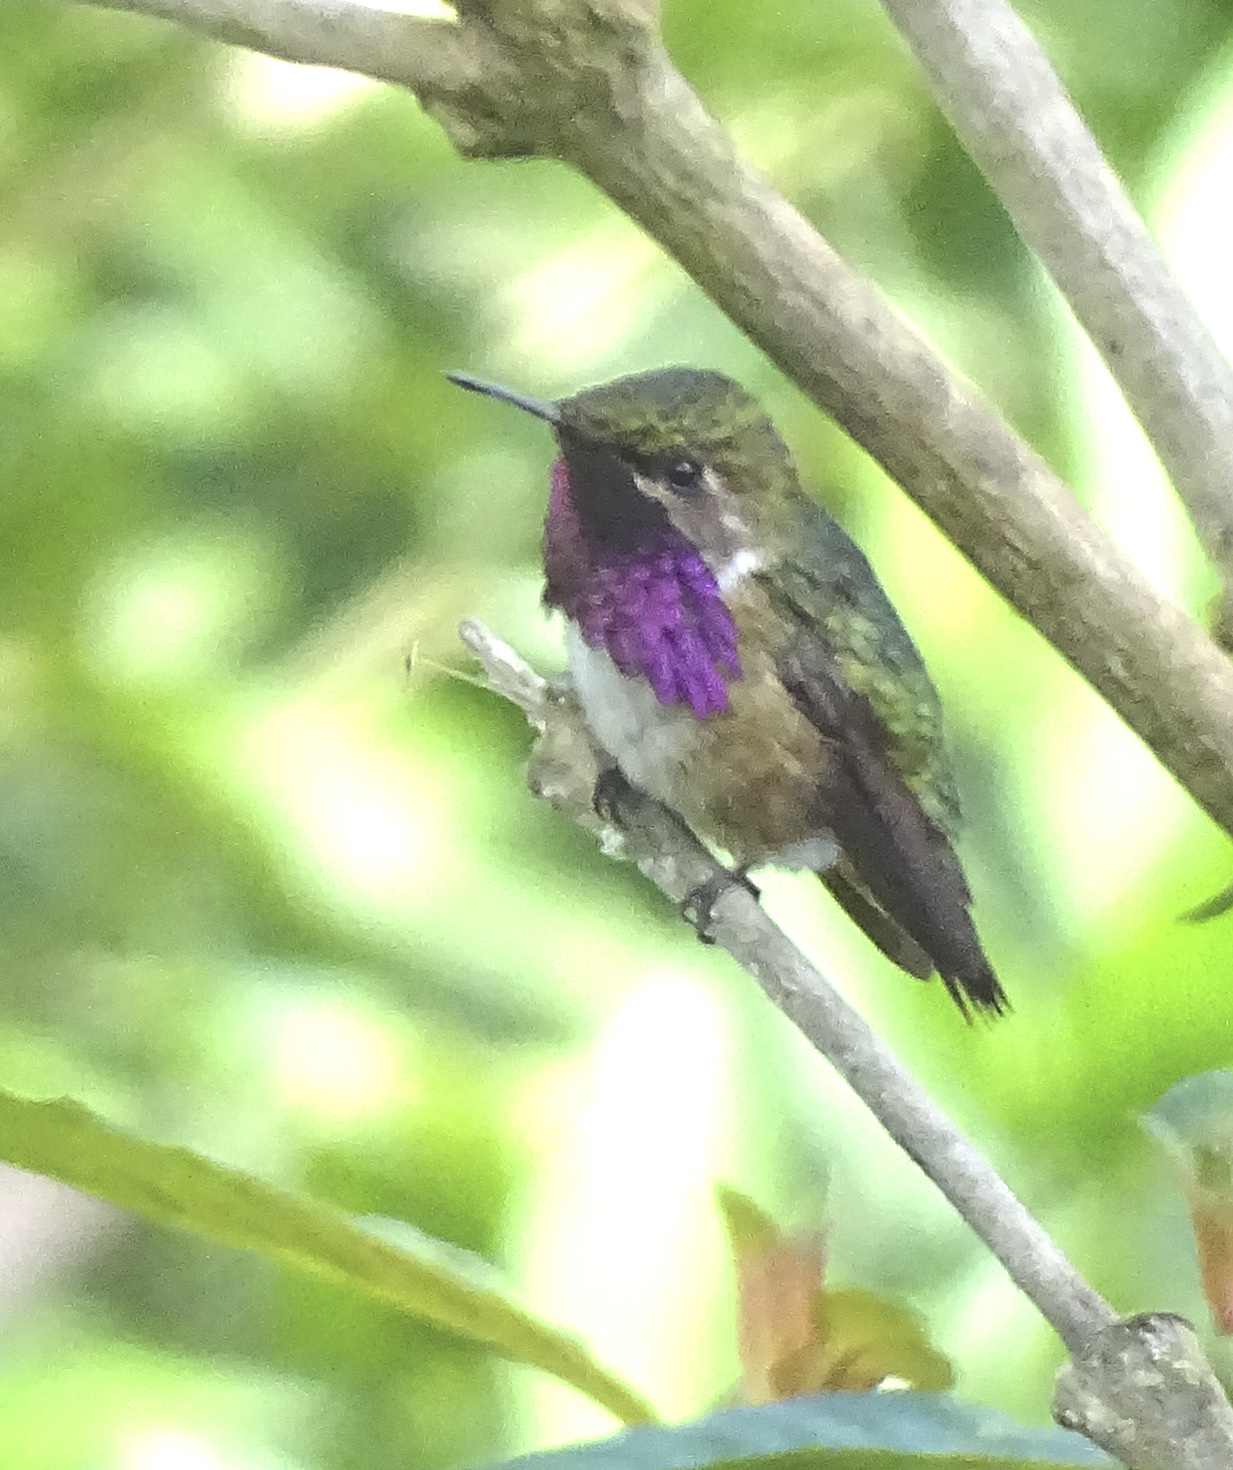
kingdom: Animalia
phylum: Chordata
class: Aves
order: Apodiformes
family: Trochilidae
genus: Selasphorus
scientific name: Selasphorus ellioti
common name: Wine-throated hummingbird
